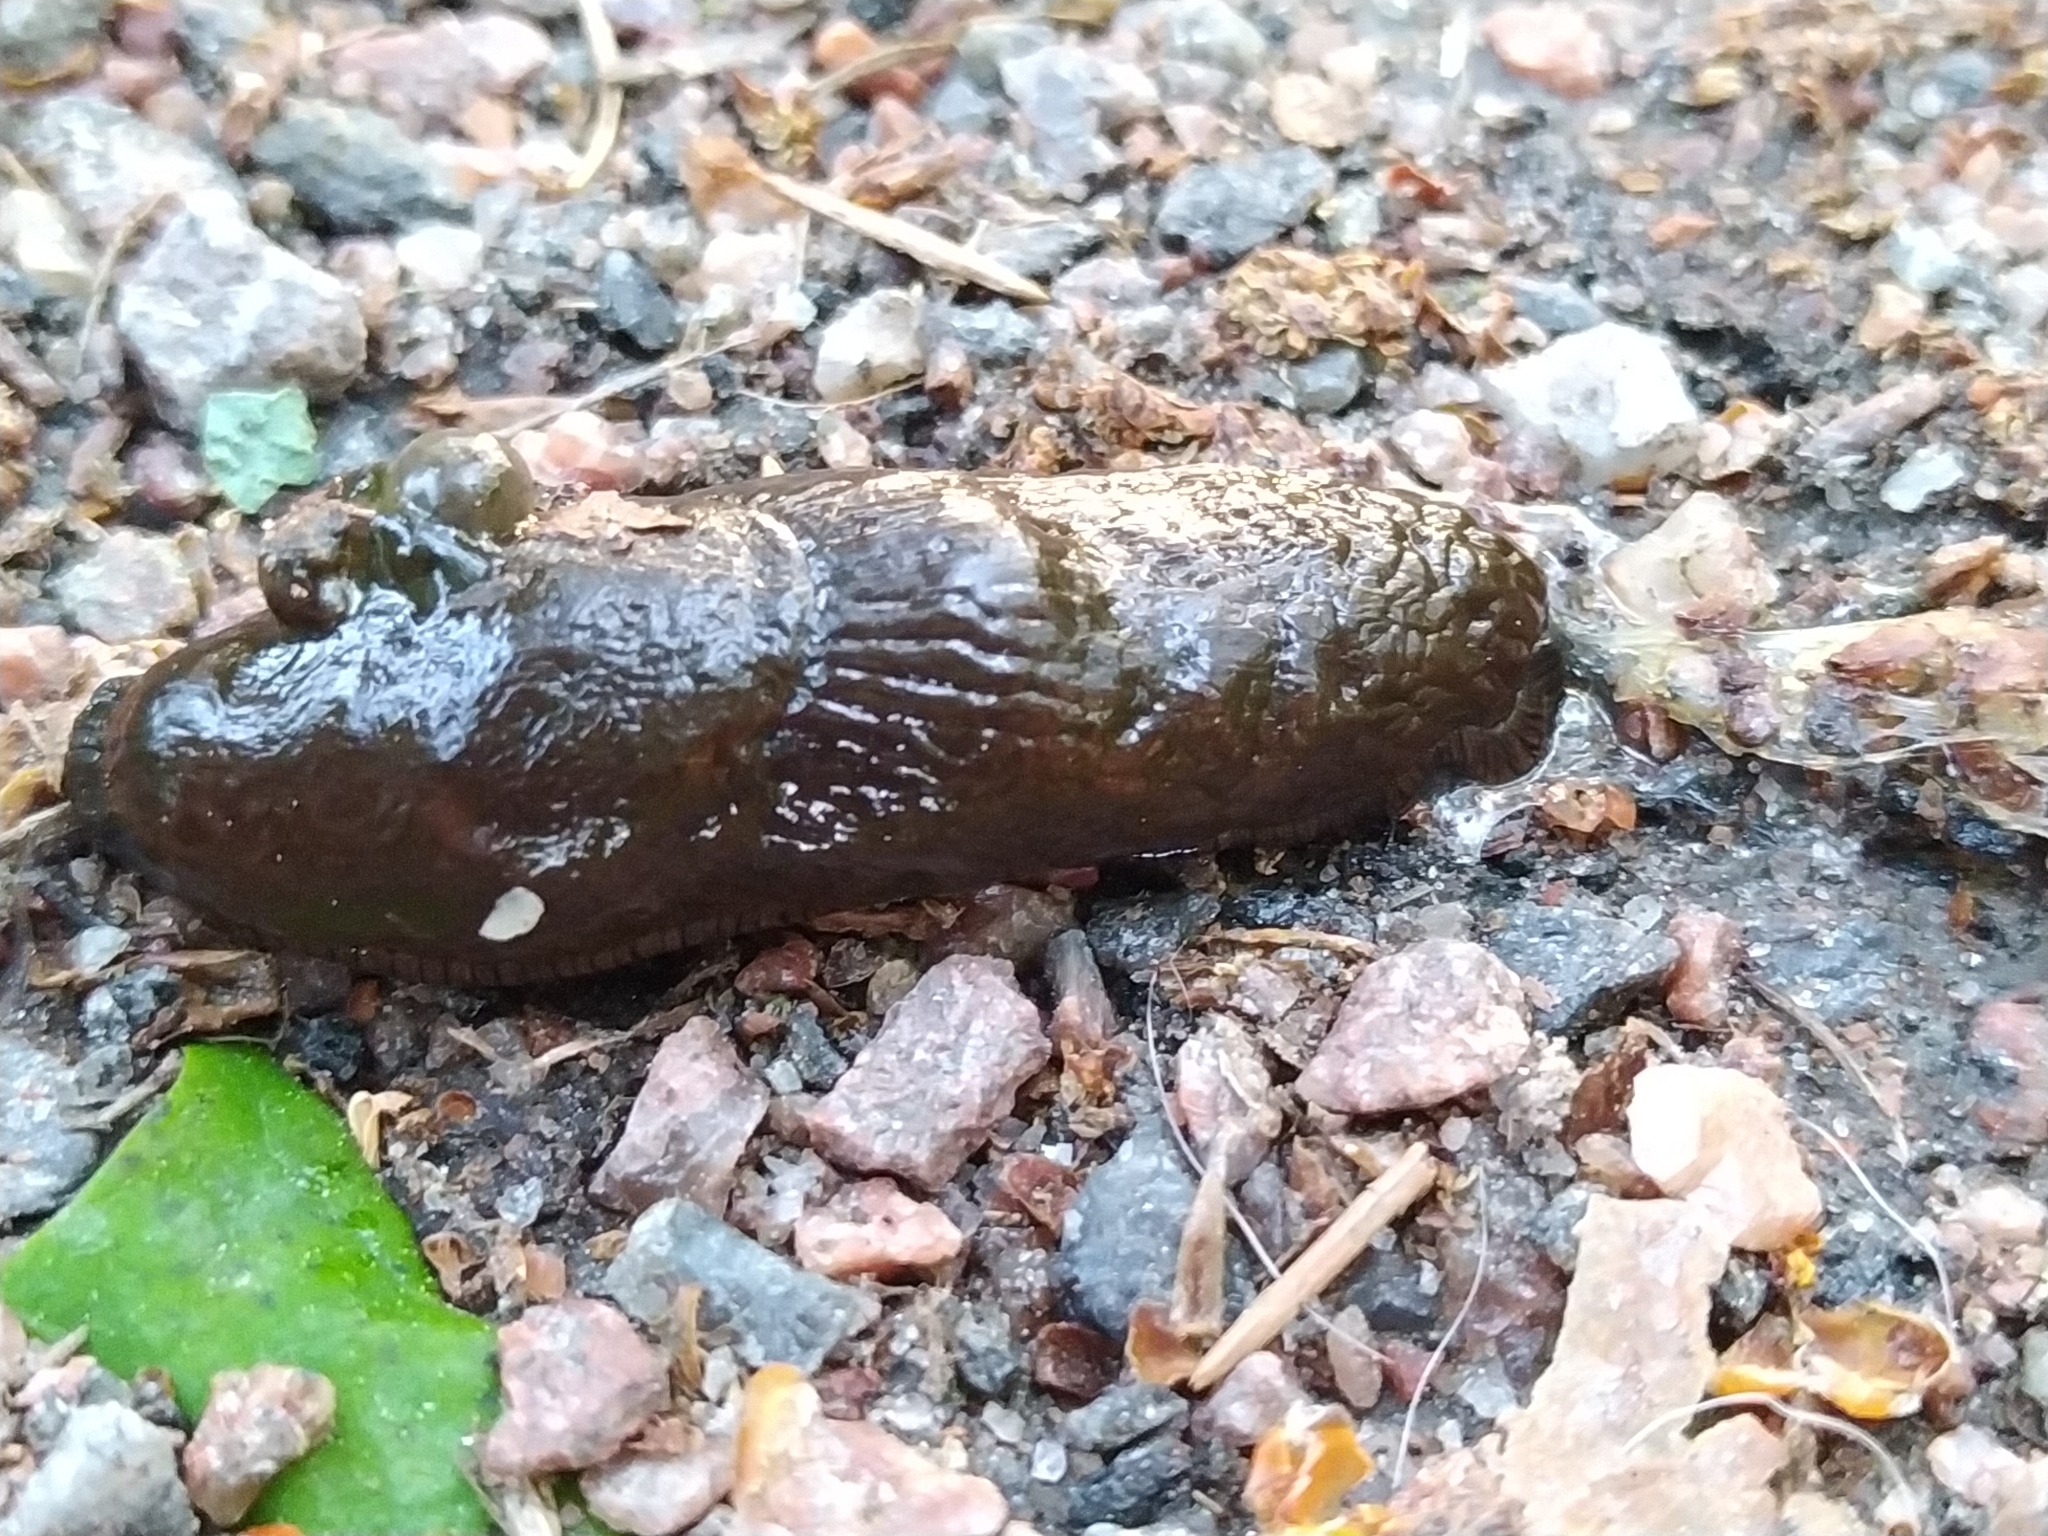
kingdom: Animalia
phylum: Mollusca
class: Gastropoda
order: Stylommatophora
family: Arionidae
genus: Arion
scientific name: Arion vulgaris
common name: Lusitanian slug
